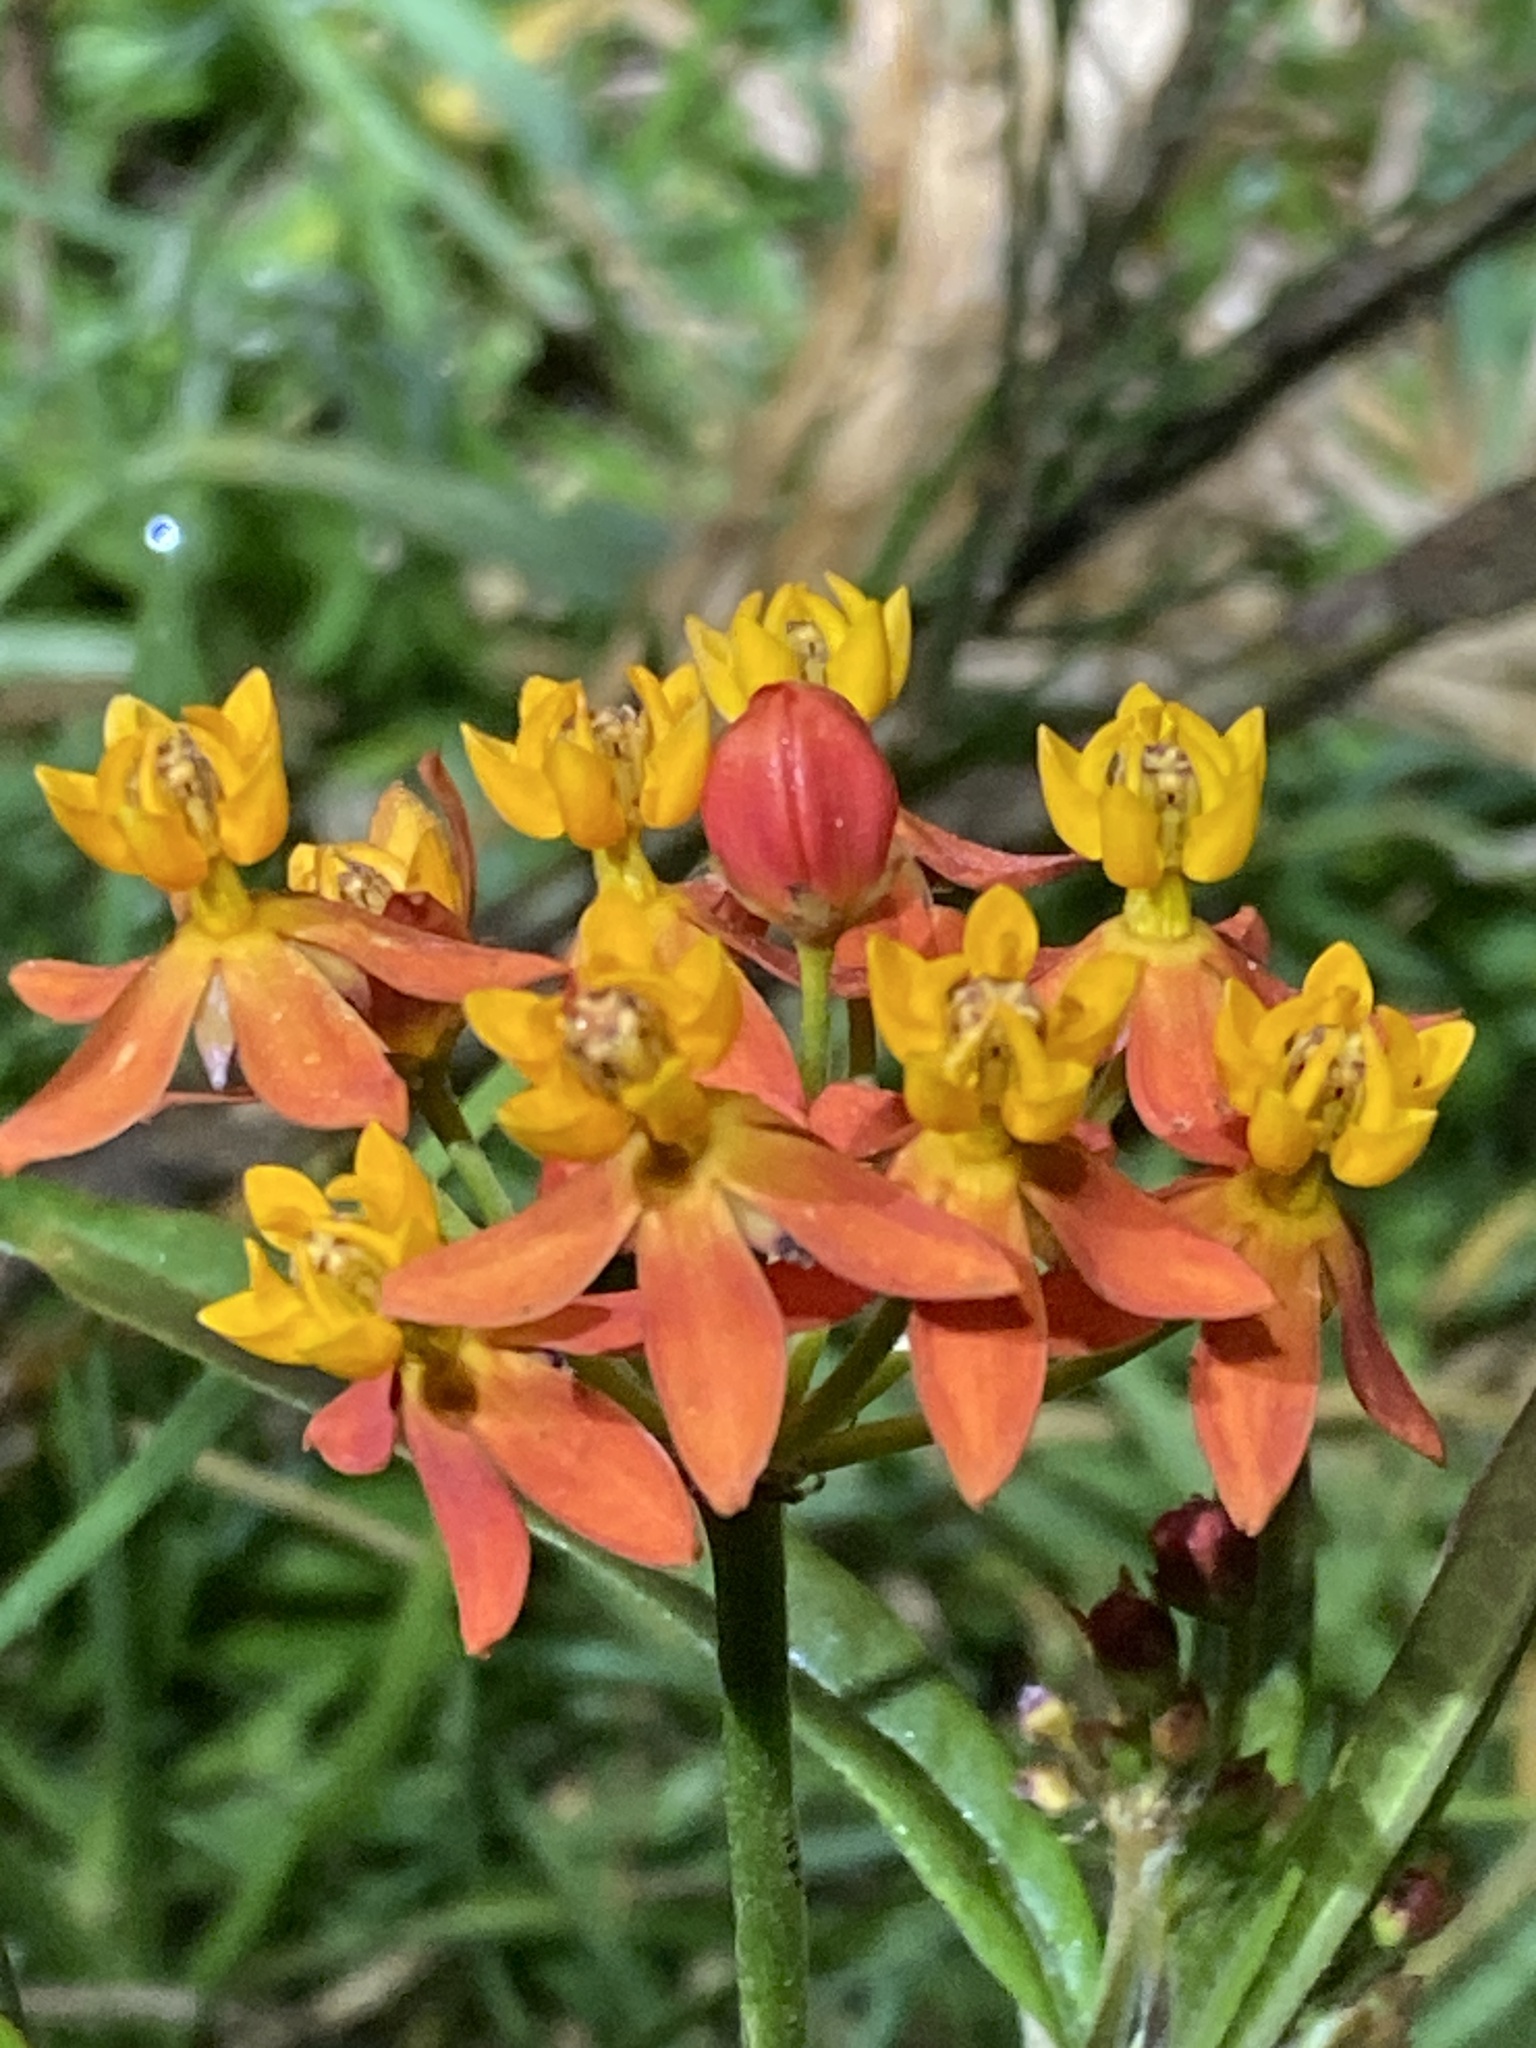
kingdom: Plantae
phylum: Tracheophyta
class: Magnoliopsida
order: Gentianales
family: Apocynaceae
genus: Asclepias
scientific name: Asclepias curassavica
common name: Bloodflower
